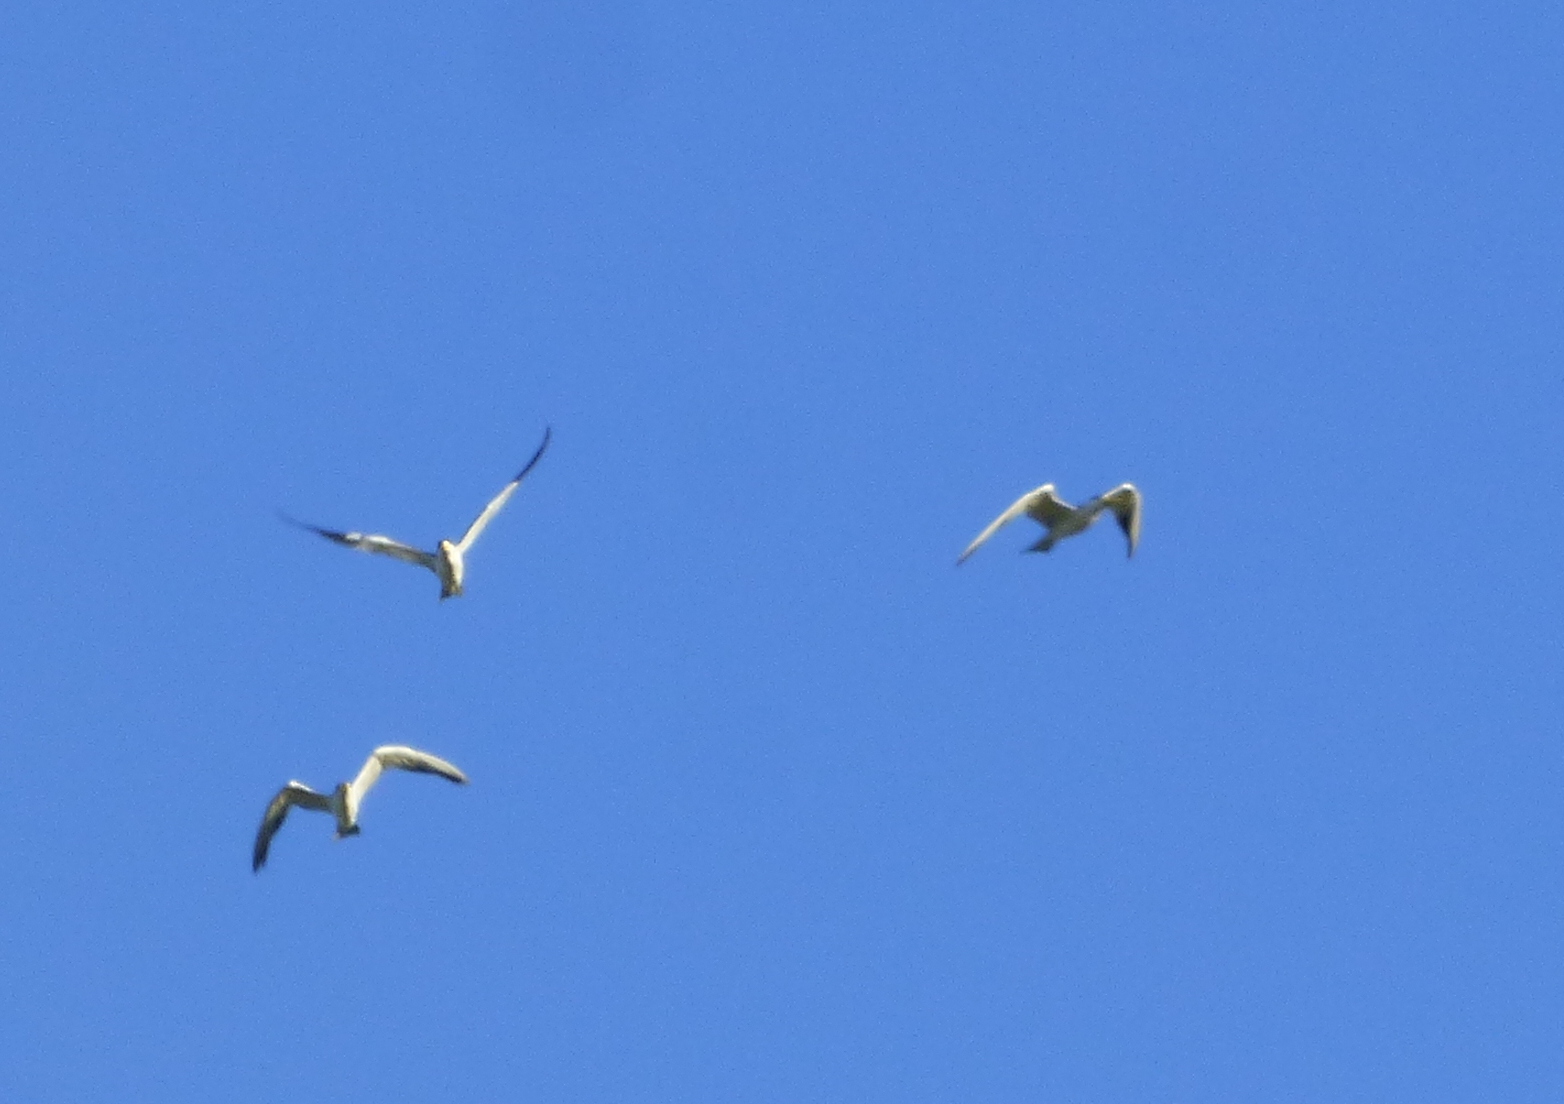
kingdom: Animalia
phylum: Chordata
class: Aves
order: Charadriiformes
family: Laridae
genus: Phaetusa
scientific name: Phaetusa simplex
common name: Large-billed tern
